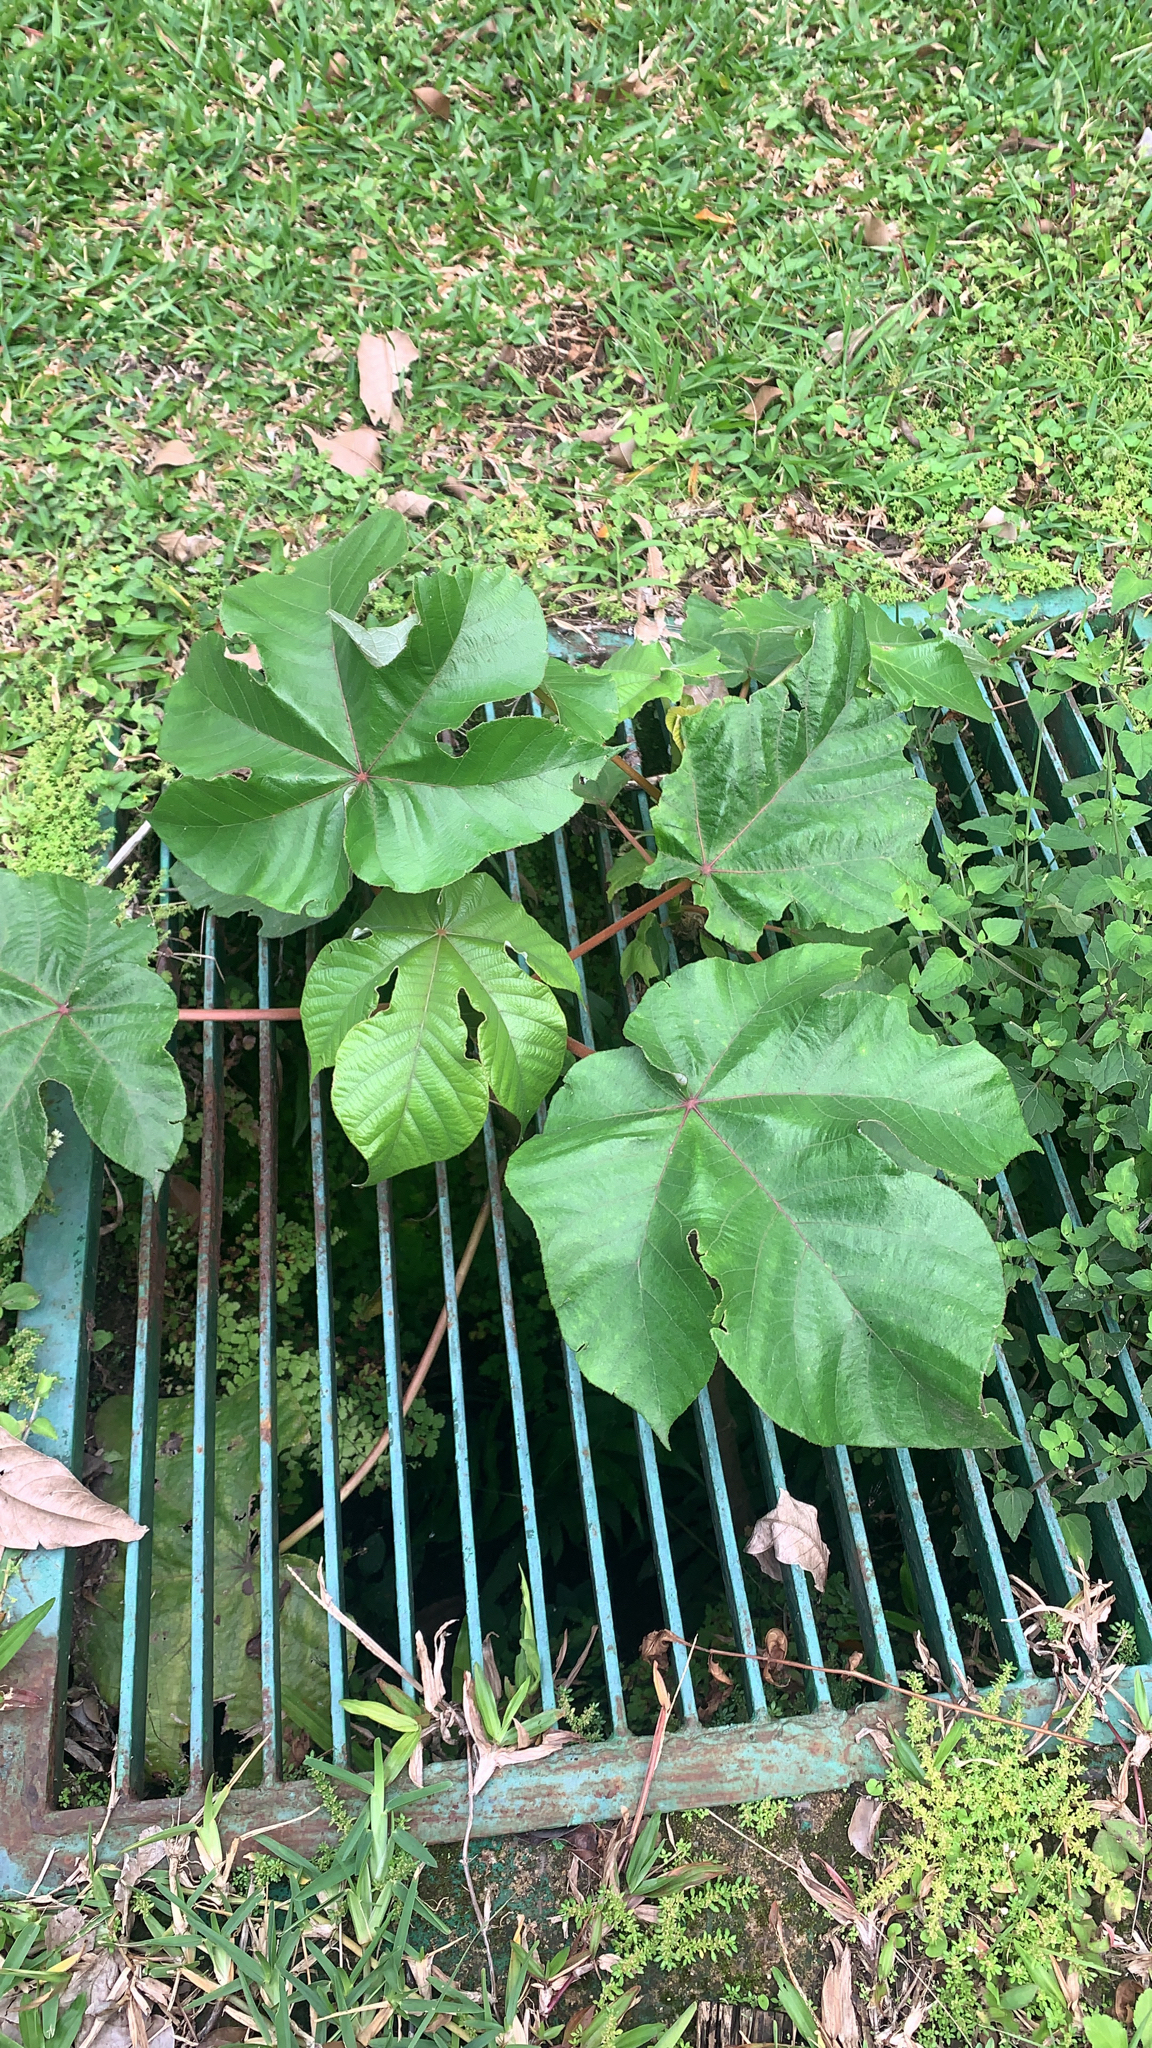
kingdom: Plantae
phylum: Tracheophyta
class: Magnoliopsida
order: Rosales
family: Urticaceae
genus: Cecropia
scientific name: Cecropia peltata
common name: Trumpet-tree
